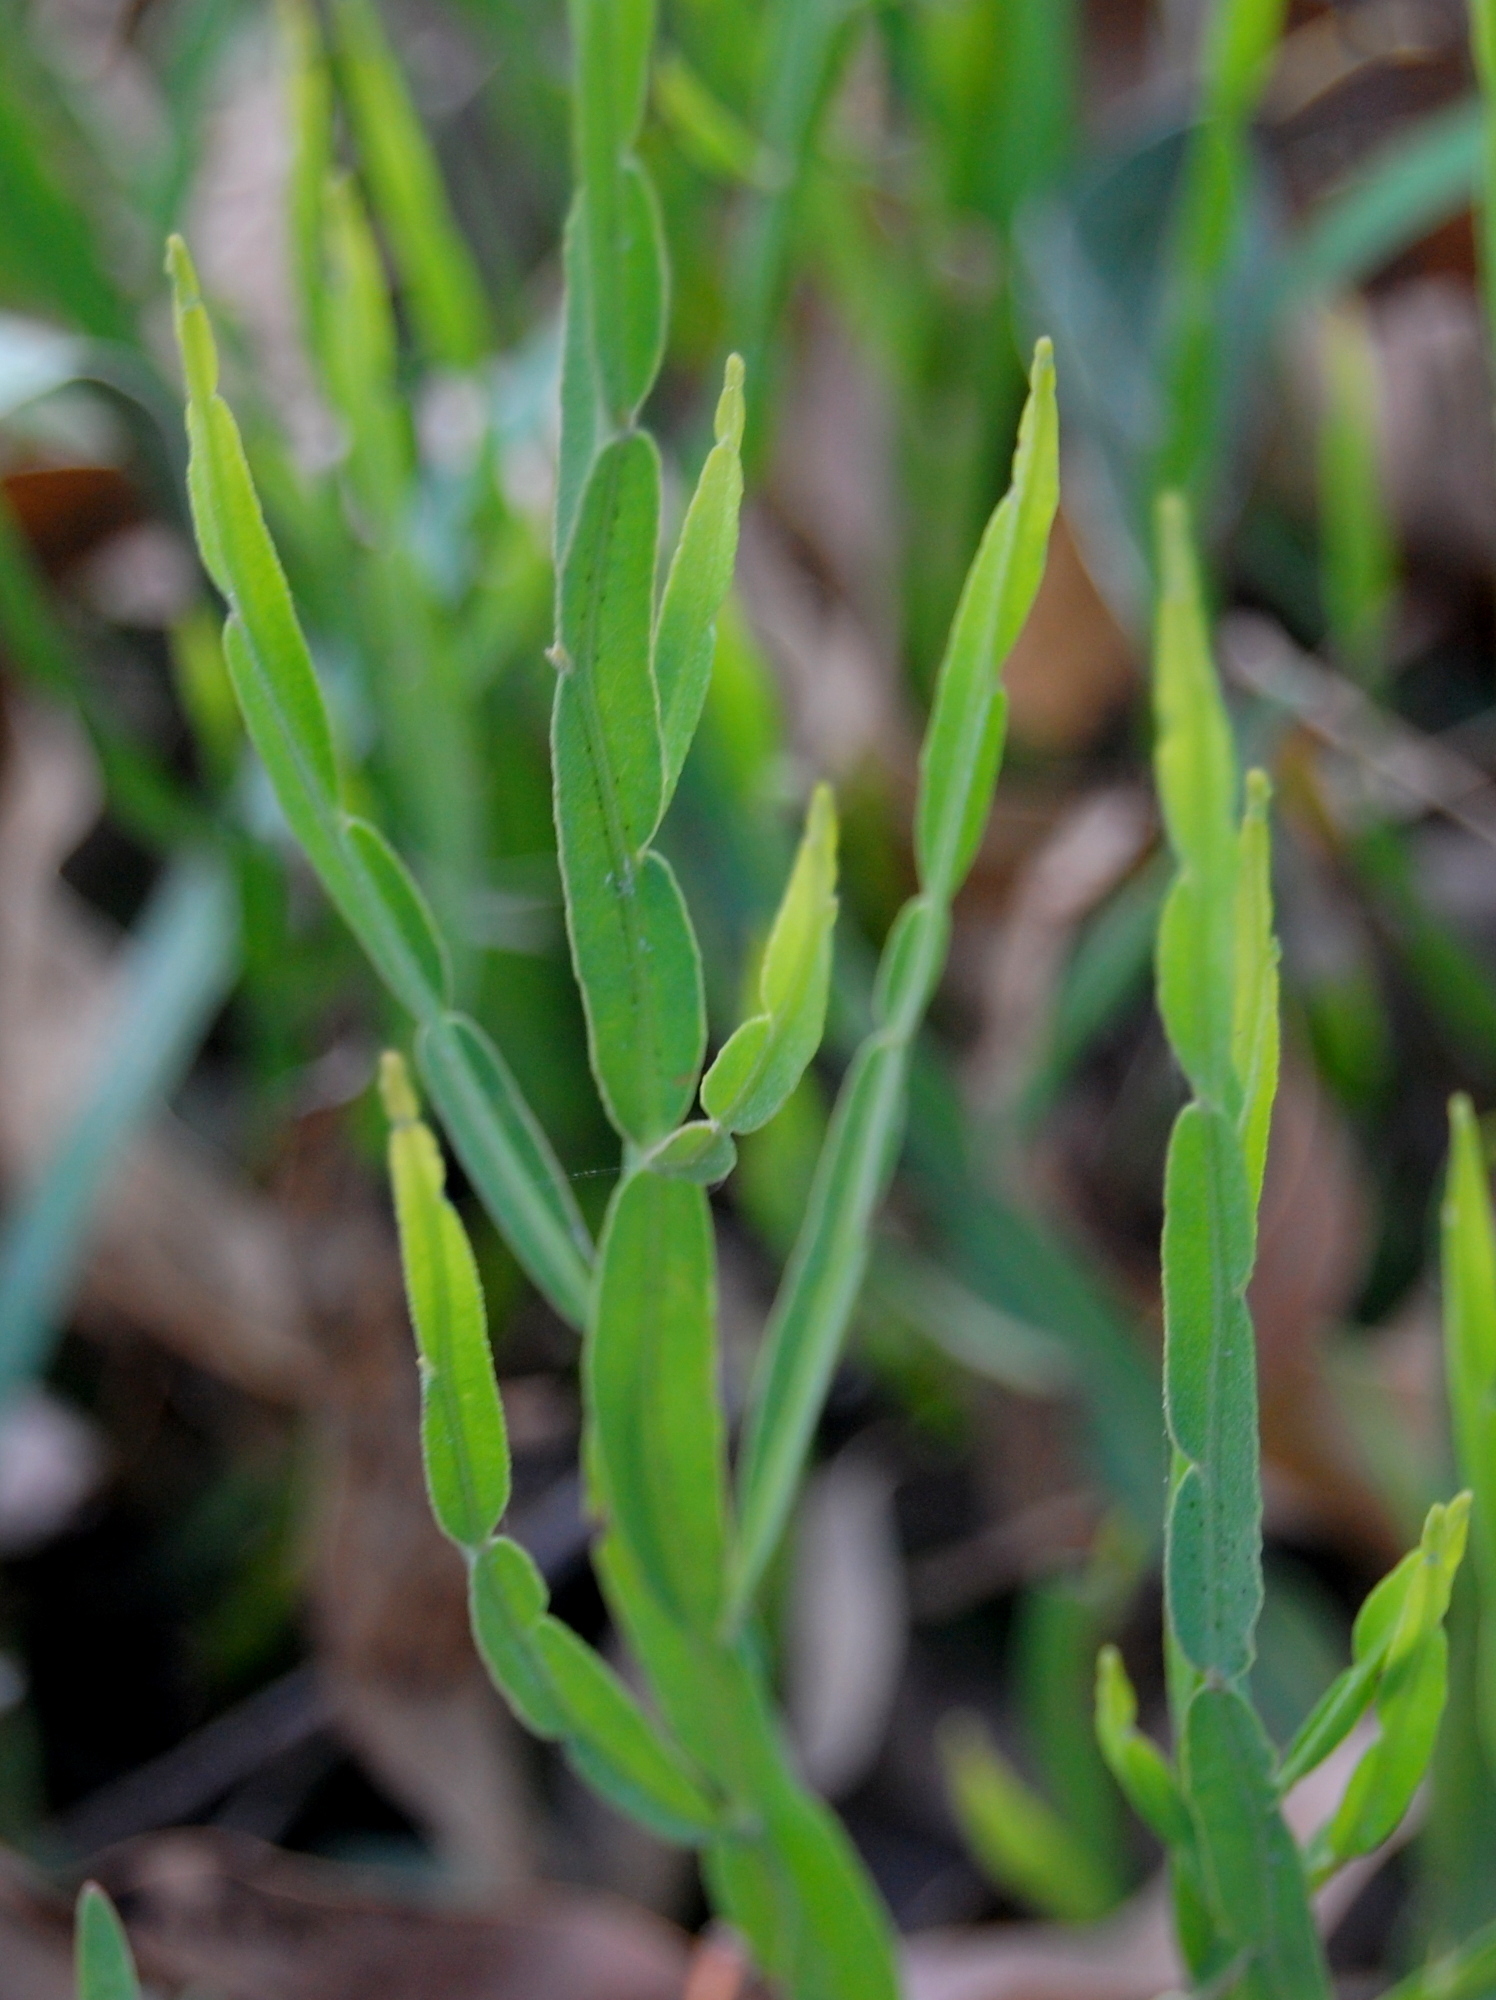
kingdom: Plantae
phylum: Tracheophyta
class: Magnoliopsida
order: Asterales
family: Asteraceae
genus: Baccharis
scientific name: Baccharis trimera
